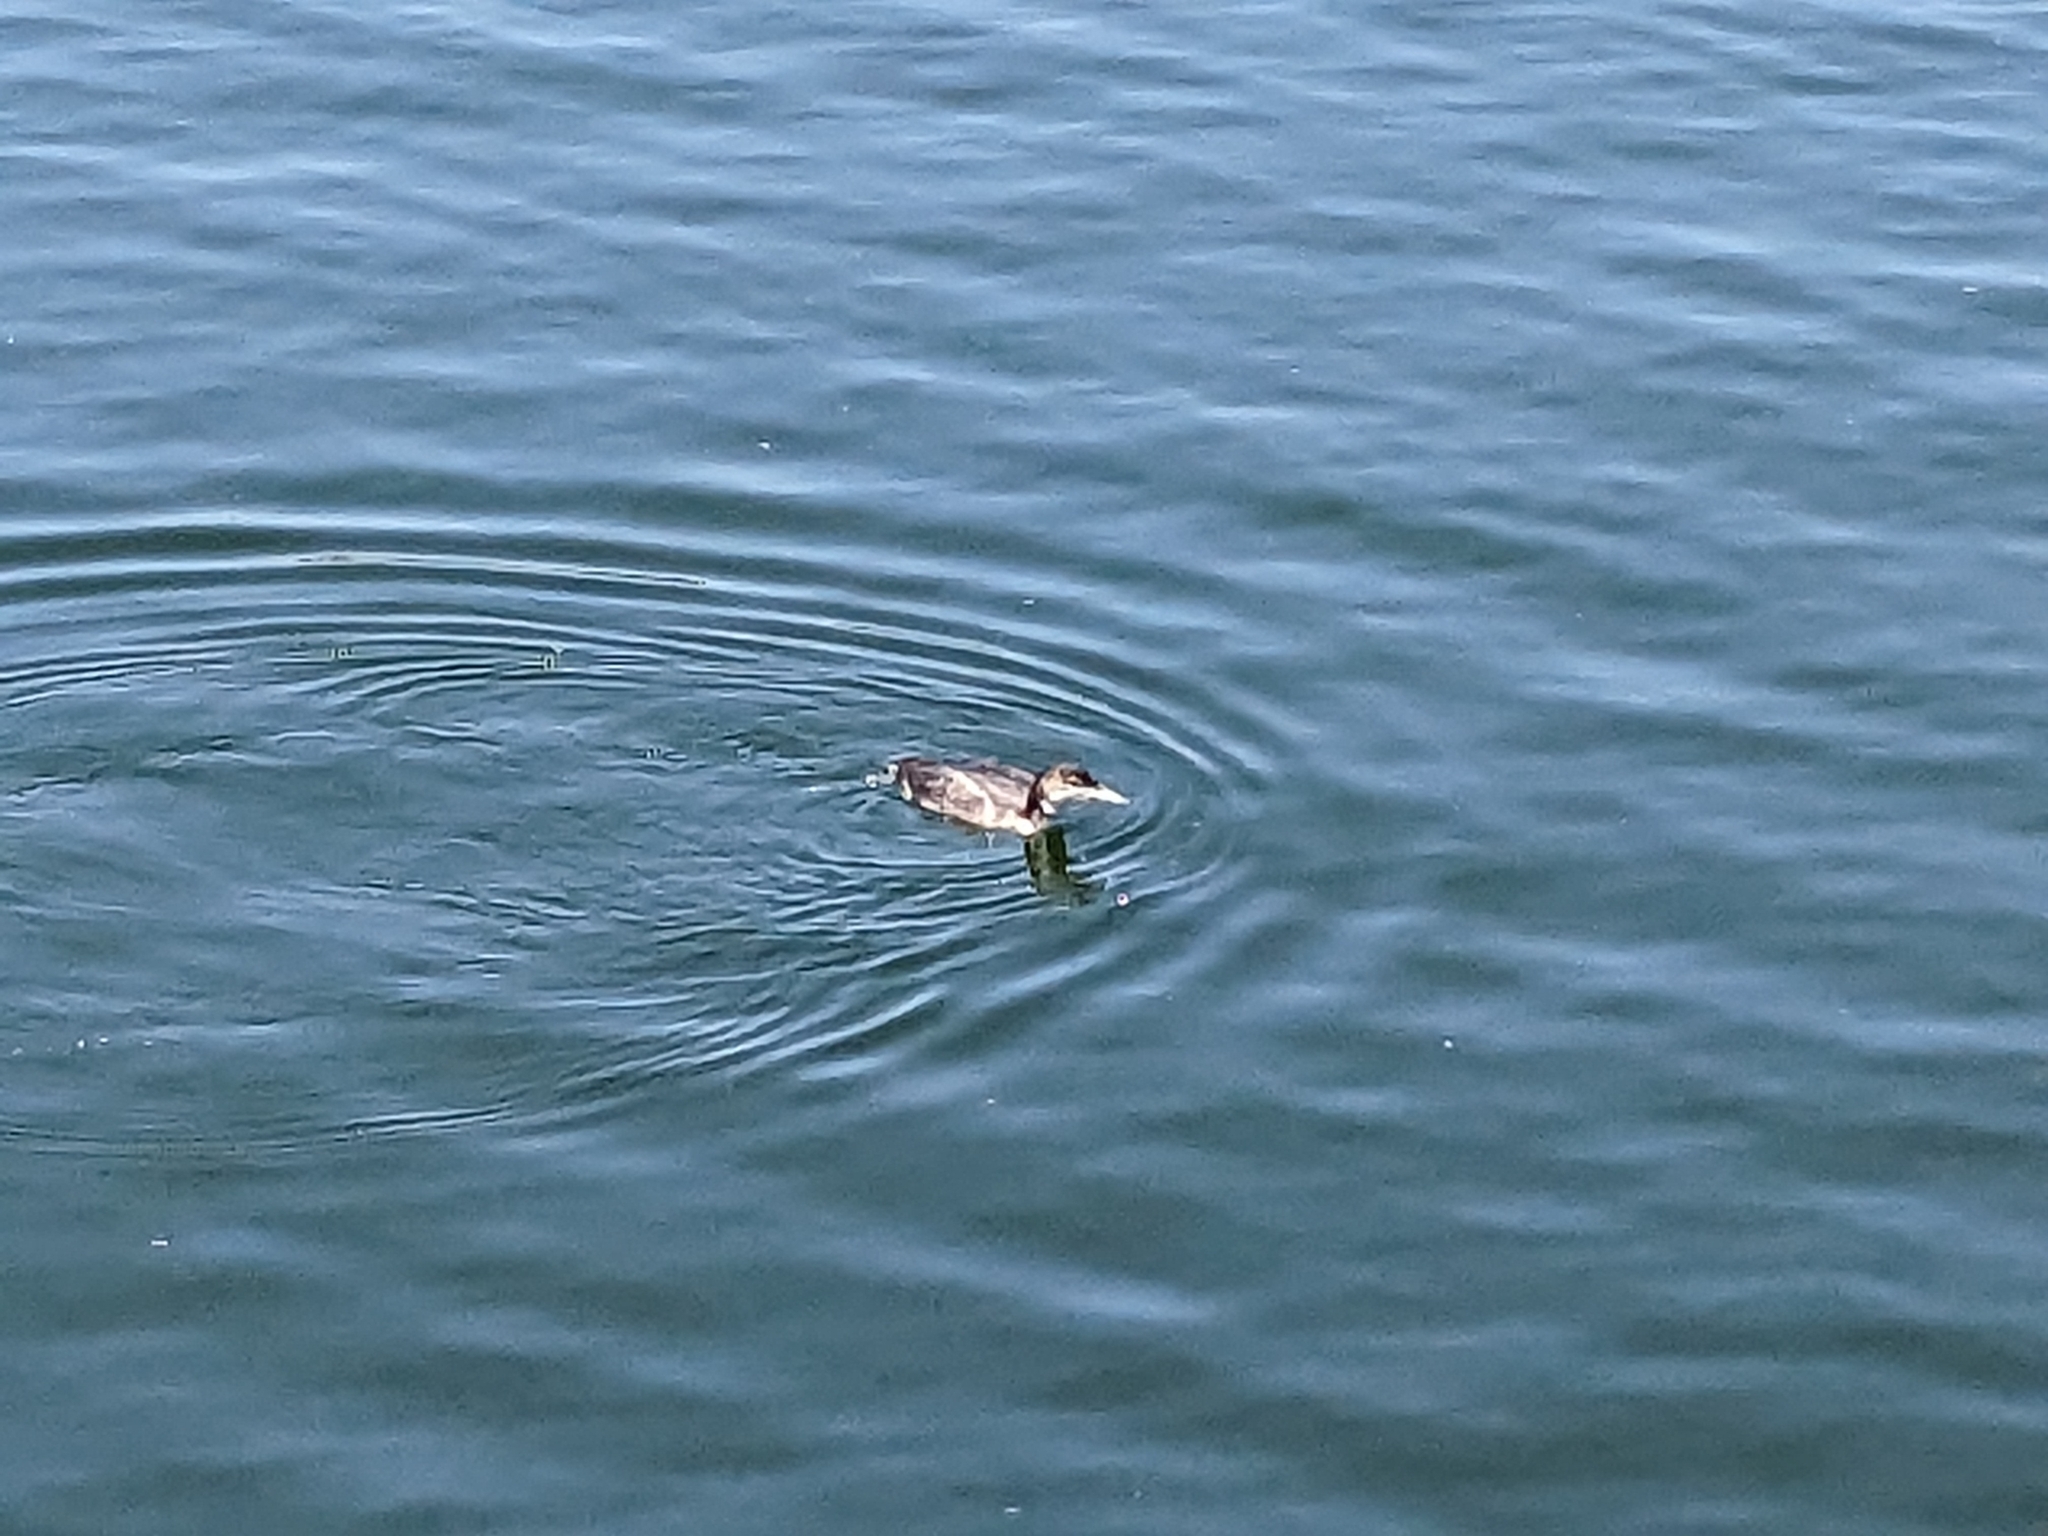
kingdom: Animalia
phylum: Chordata
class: Aves
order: Gaviiformes
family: Gaviidae
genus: Gavia
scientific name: Gavia immer
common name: Common loon
